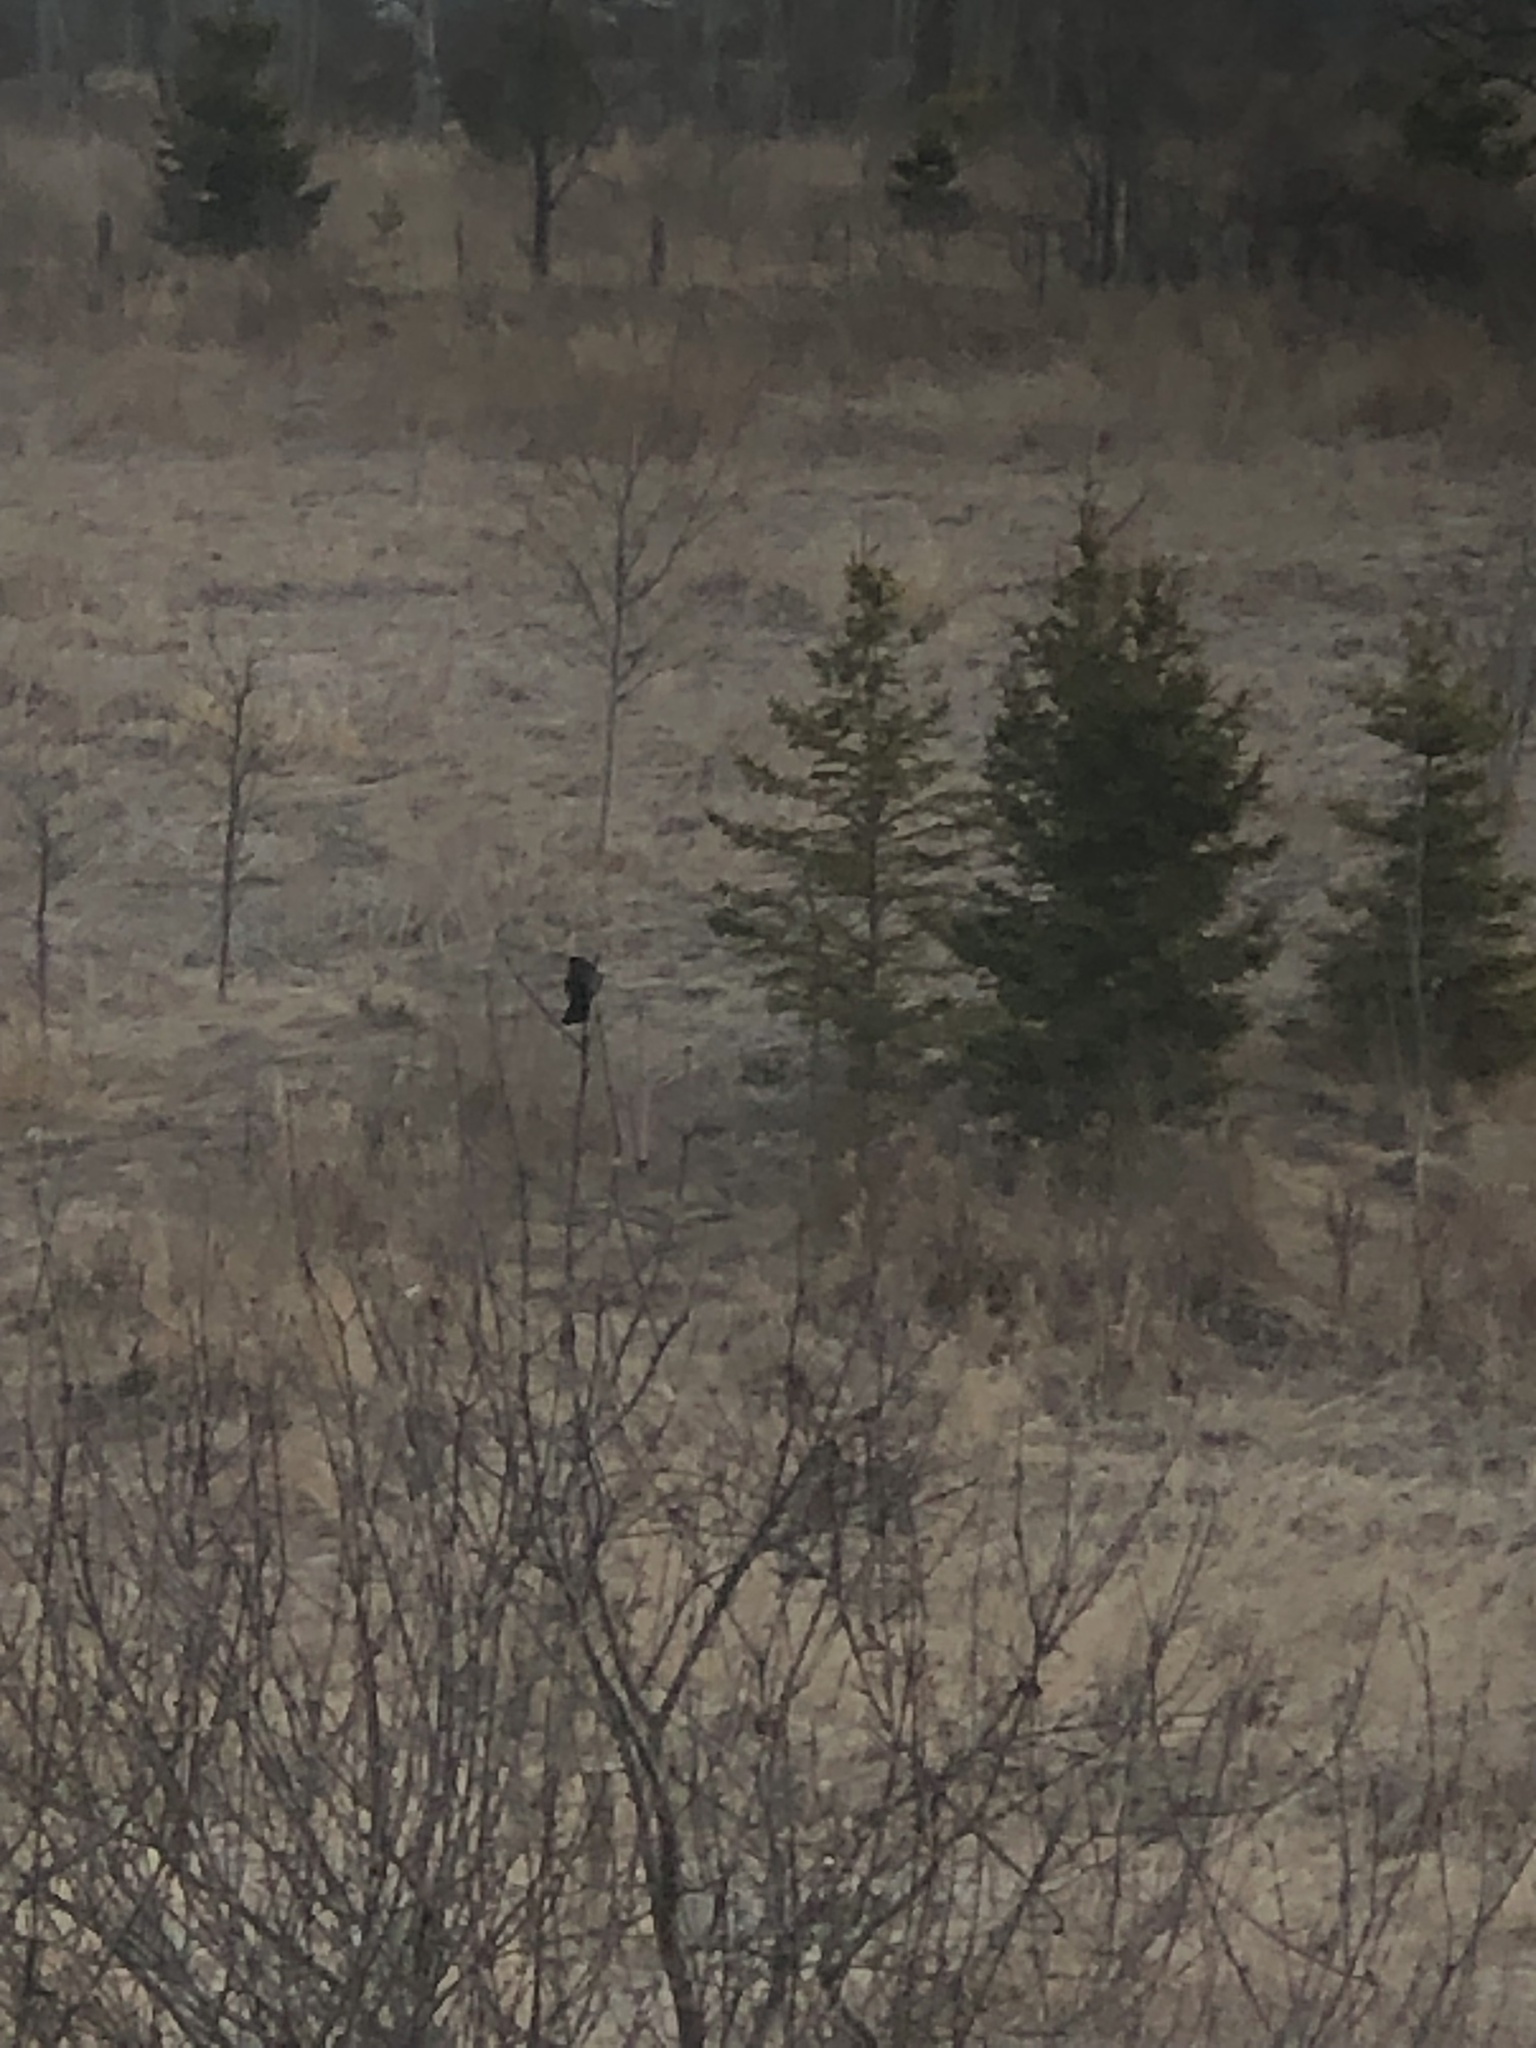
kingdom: Animalia
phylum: Chordata
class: Aves
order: Passeriformes
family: Icteridae
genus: Agelaius
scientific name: Agelaius phoeniceus
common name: Red-winged blackbird
